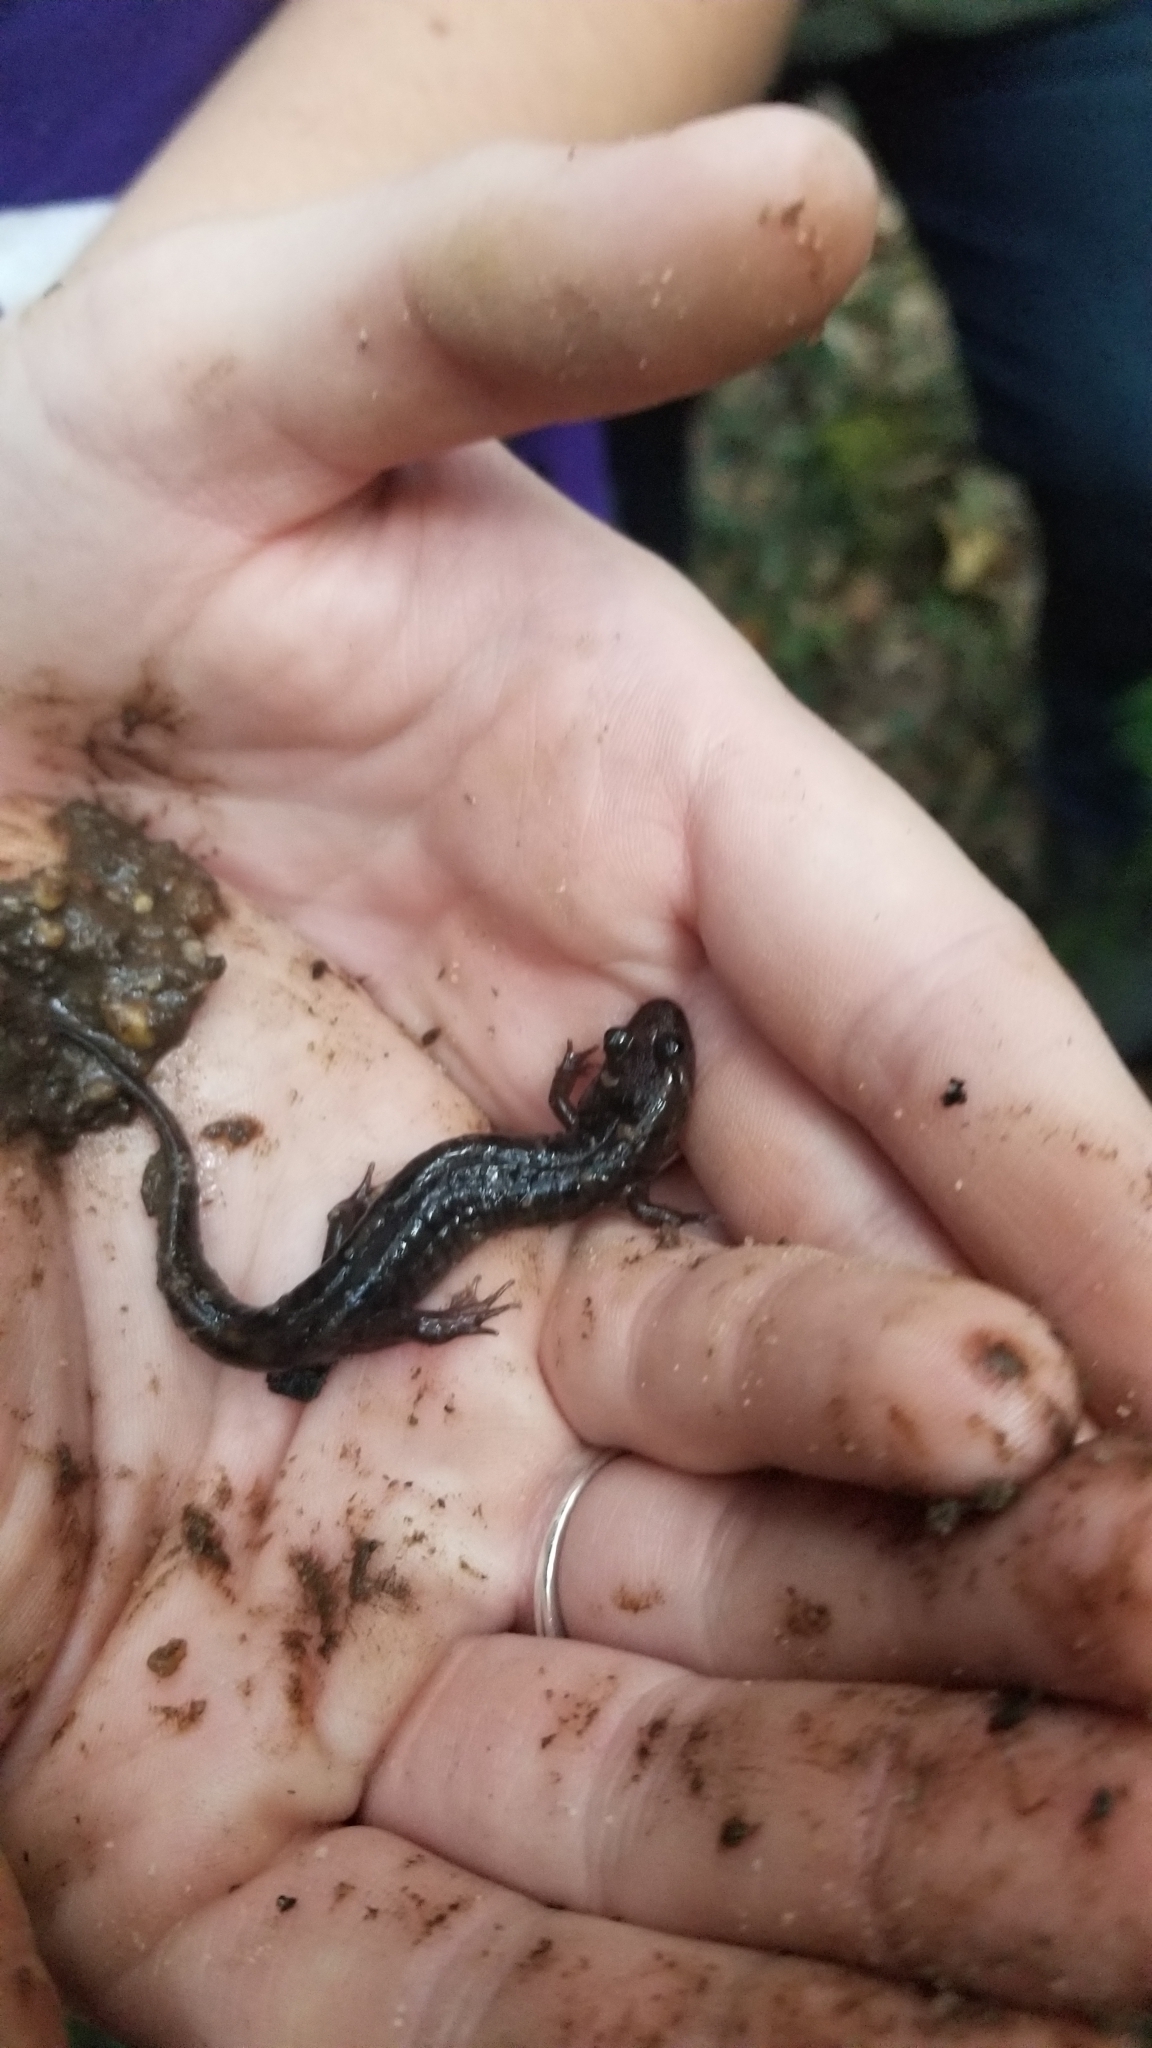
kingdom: Animalia
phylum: Chordata
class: Amphibia
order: Caudata
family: Plethodontidae
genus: Desmognathus
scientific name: Desmognathus monticola
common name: Seal salamander
